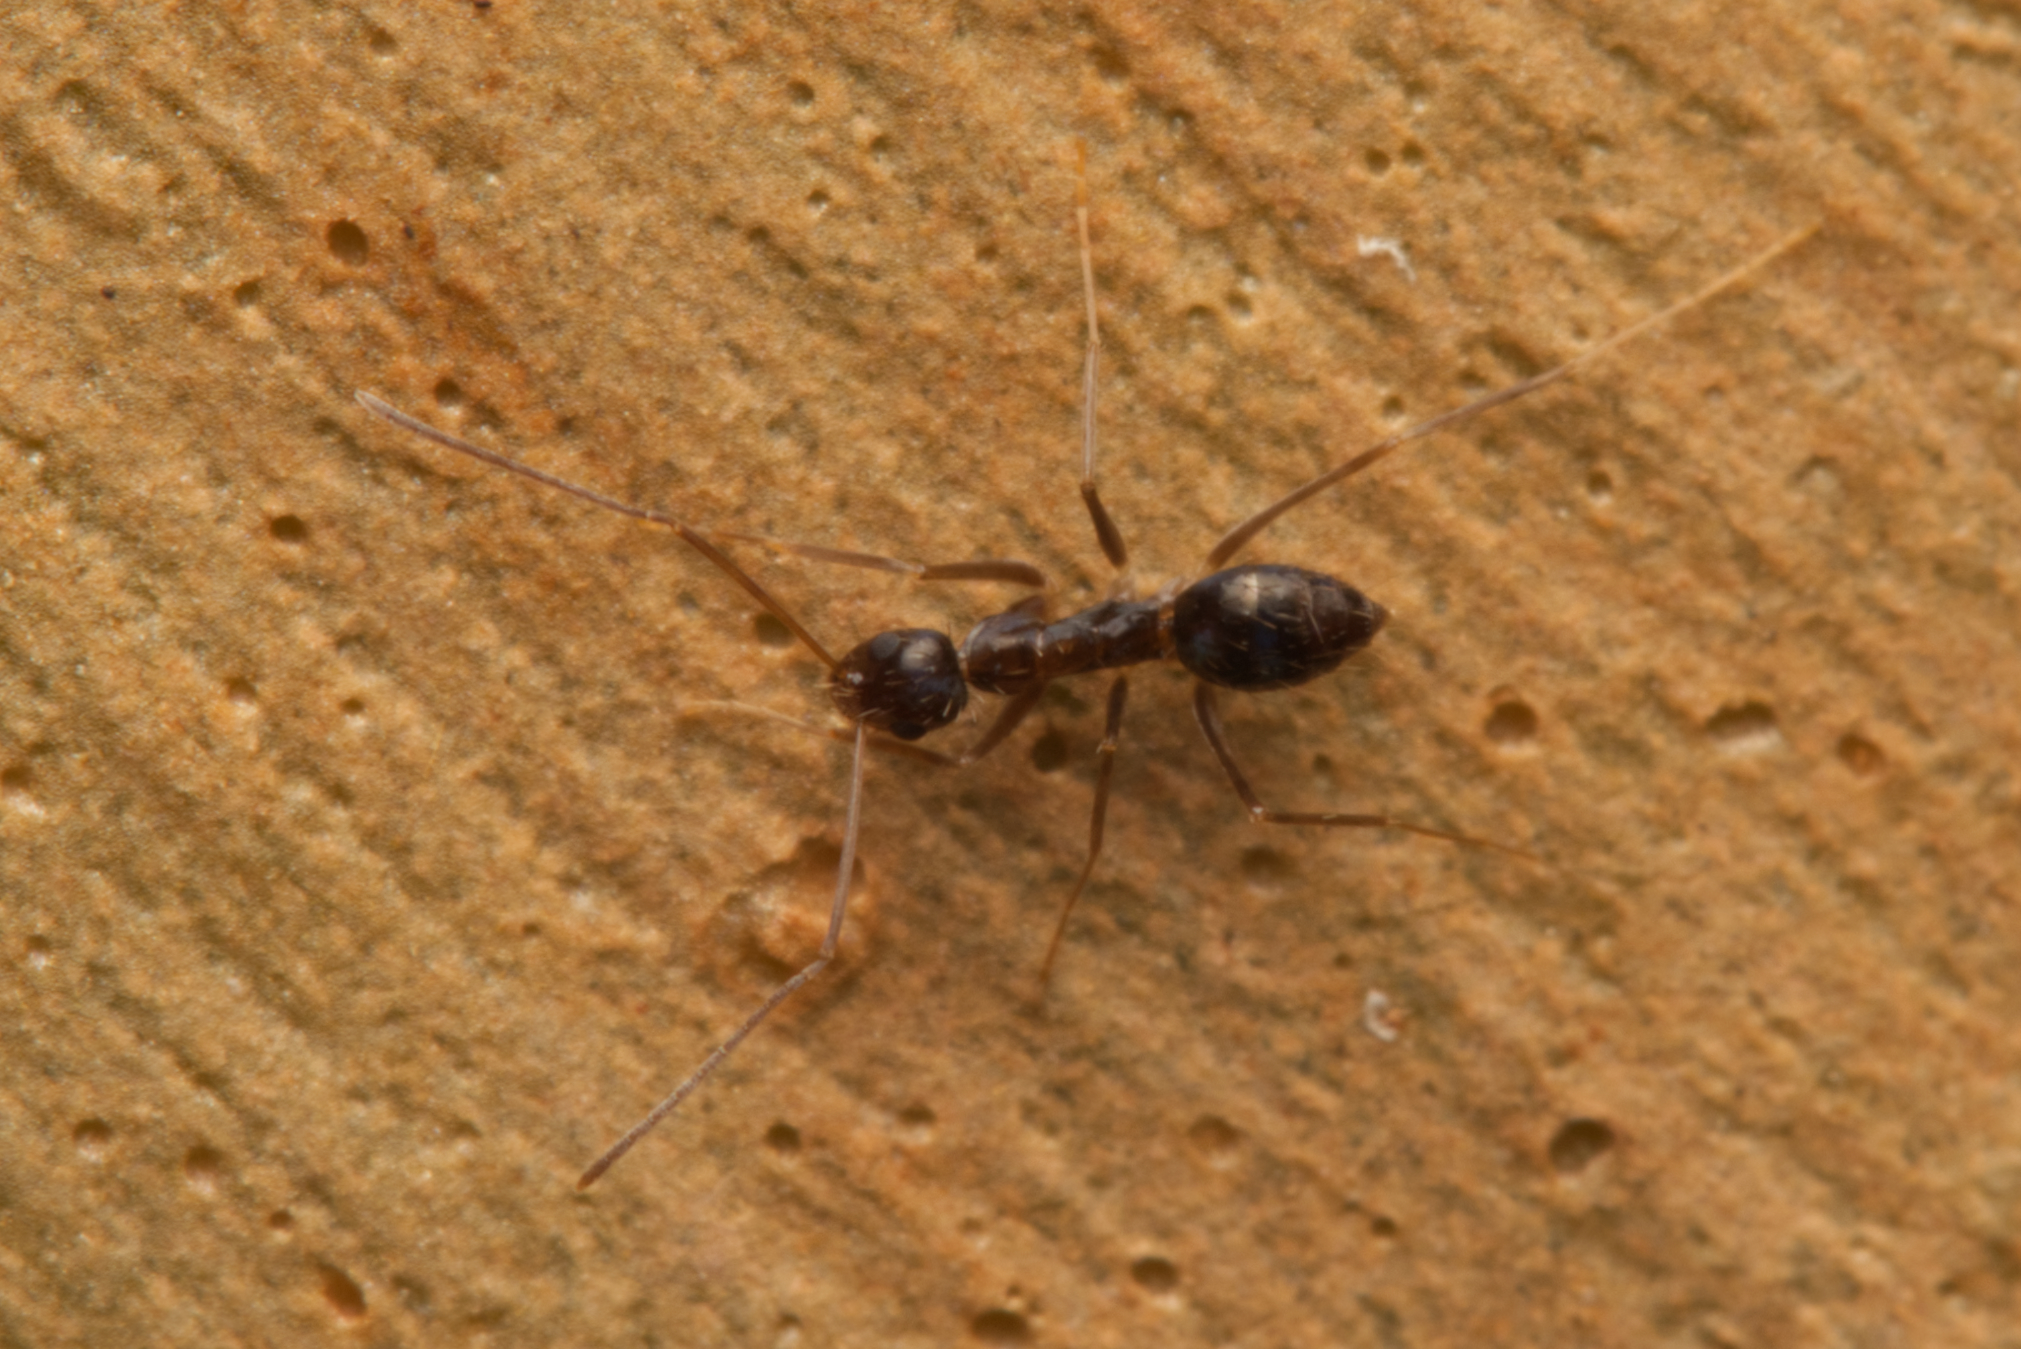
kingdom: Animalia
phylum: Arthropoda
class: Insecta
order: Hymenoptera
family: Formicidae
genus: Paratrechina
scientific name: Paratrechina longicornis
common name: Longhorned crazy ant
